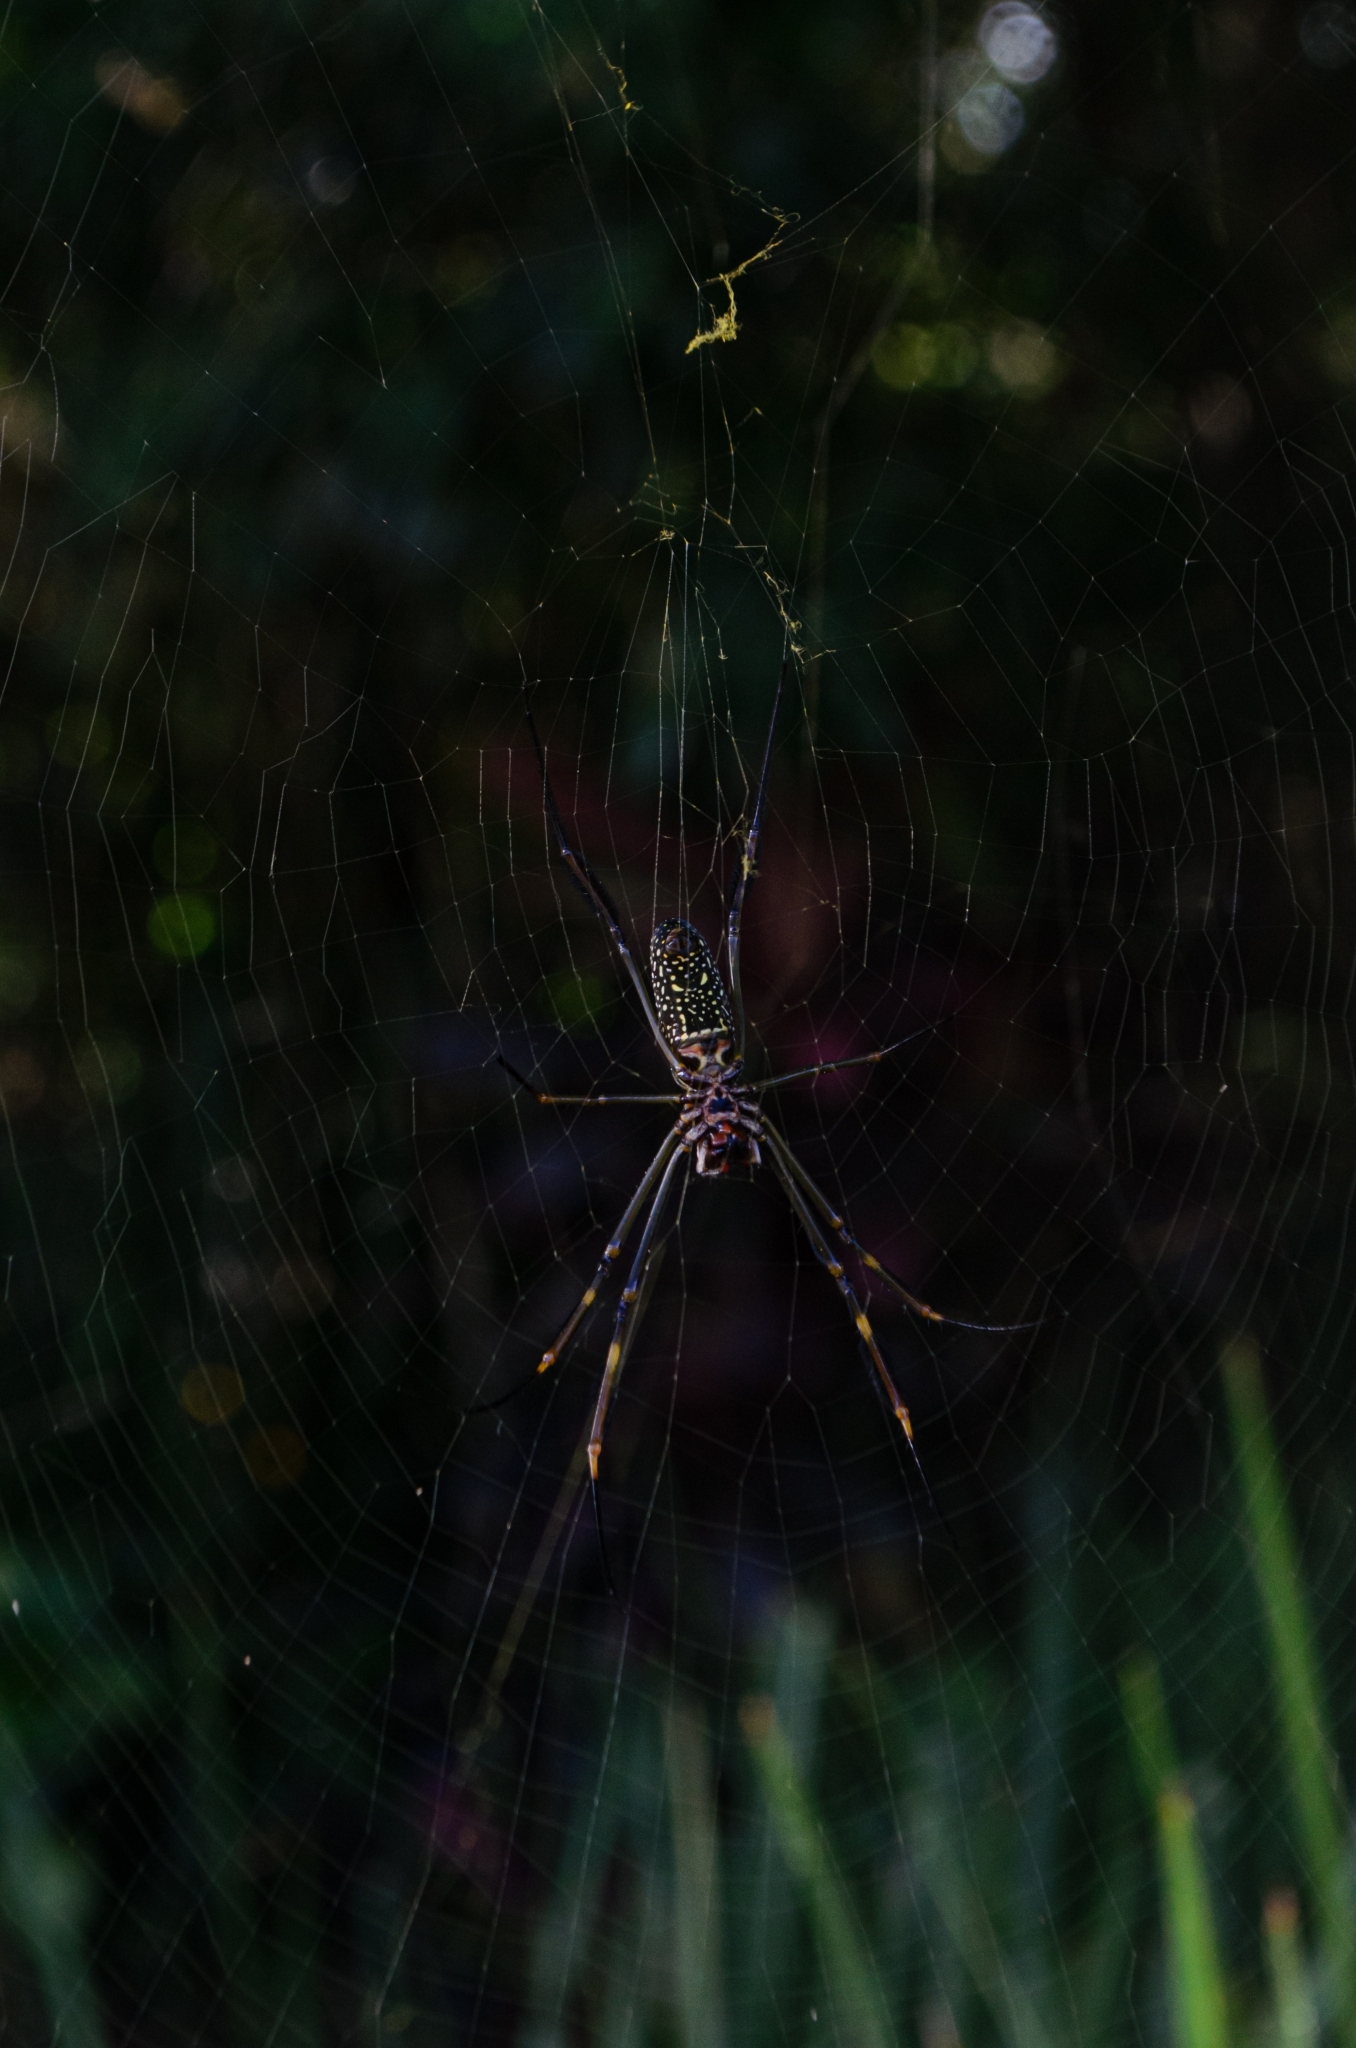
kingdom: Animalia
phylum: Arthropoda
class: Arachnida
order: Araneae
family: Araneidae
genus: Trichonephila
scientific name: Trichonephila clavipes
